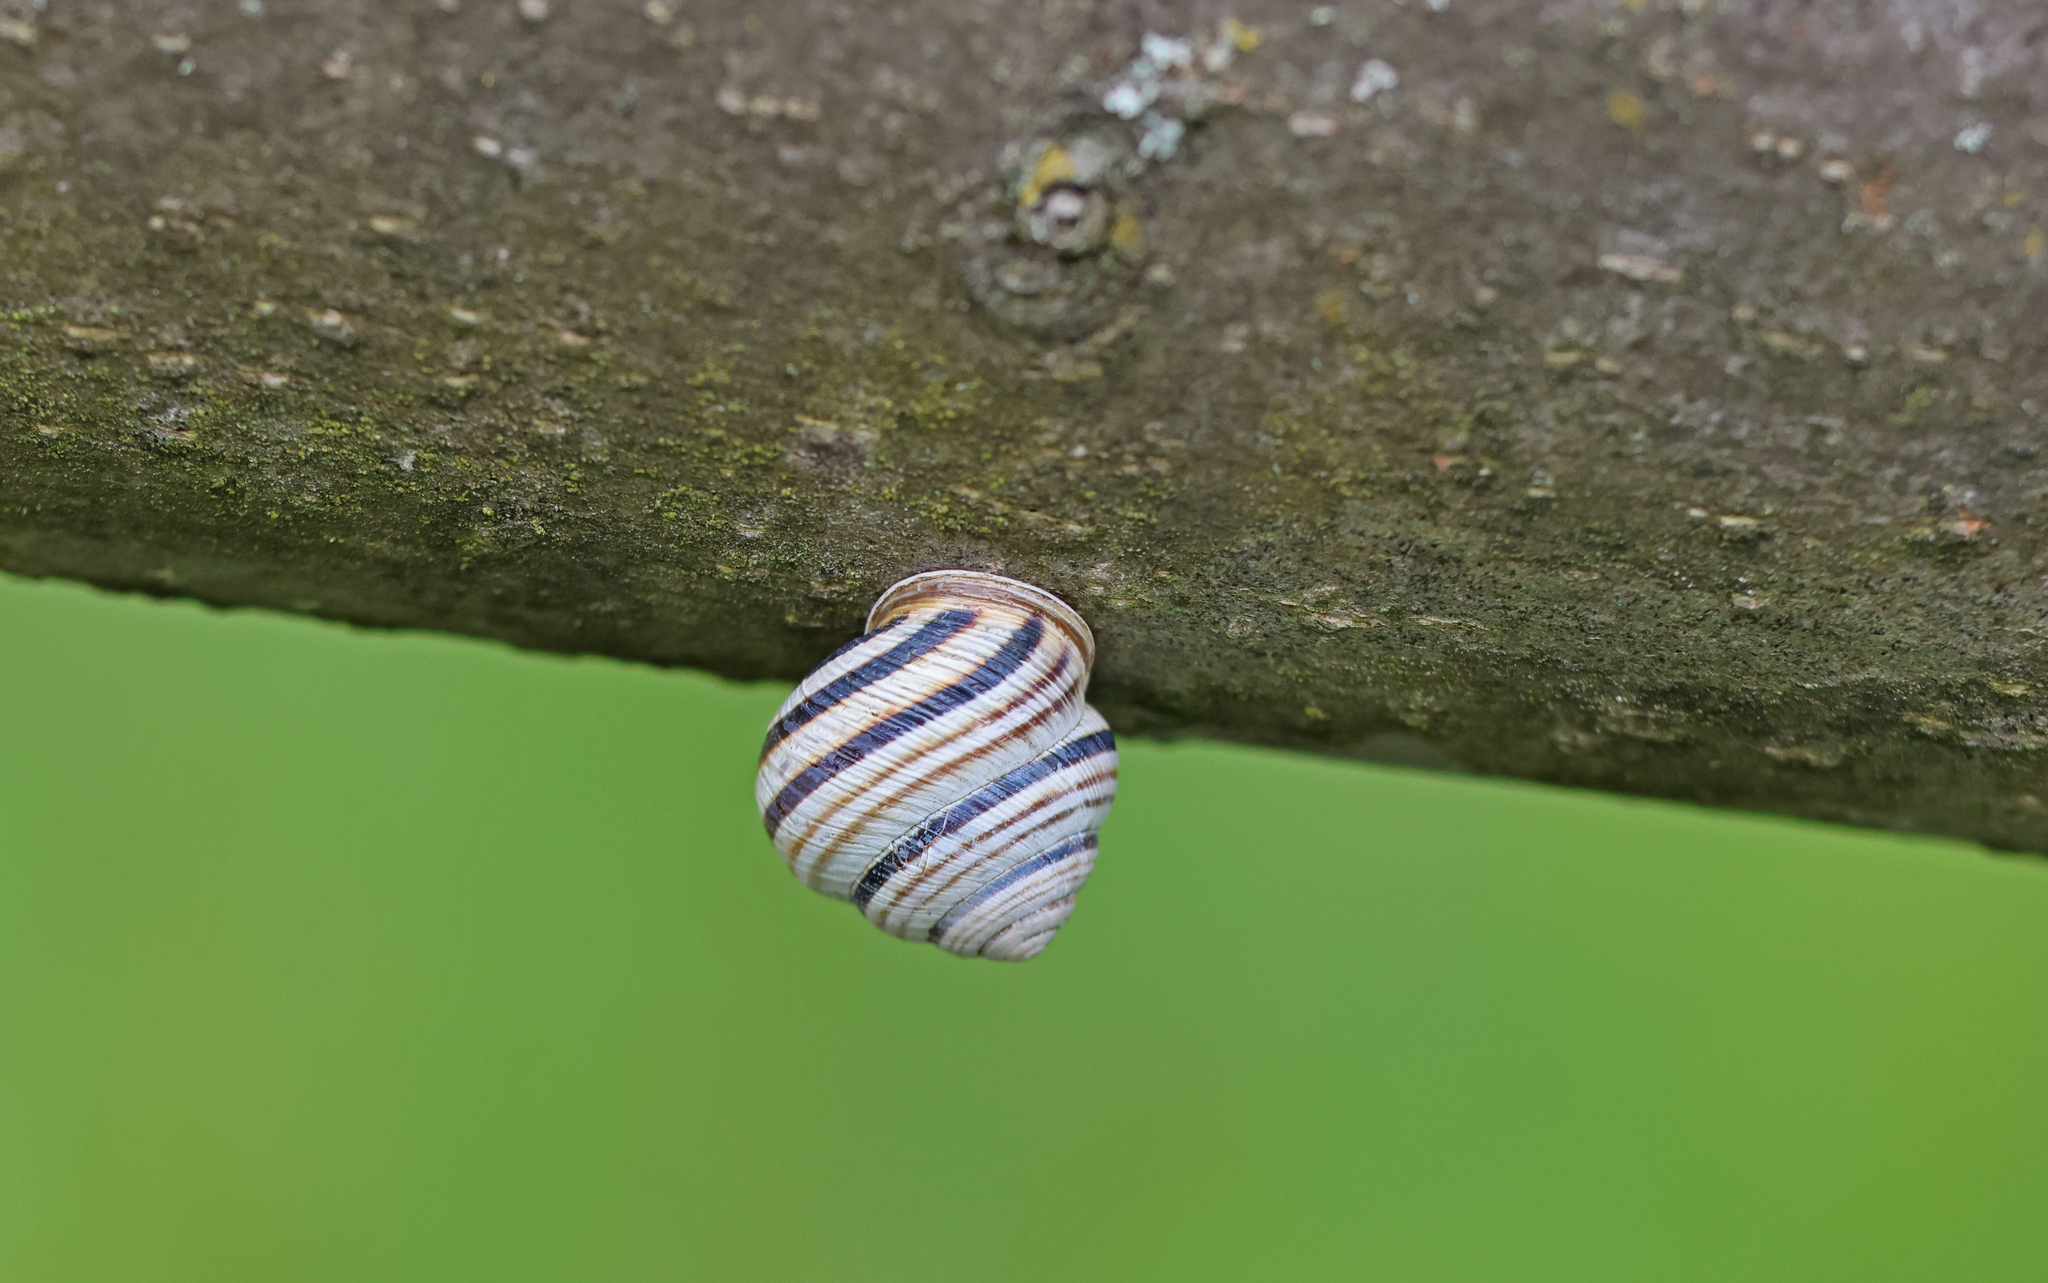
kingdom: Animalia
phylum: Mollusca
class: Gastropoda
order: Stylommatophora
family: Helicidae
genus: Caucasotachea
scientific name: Caucasotachea vindobonensis
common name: European helicid land snail
